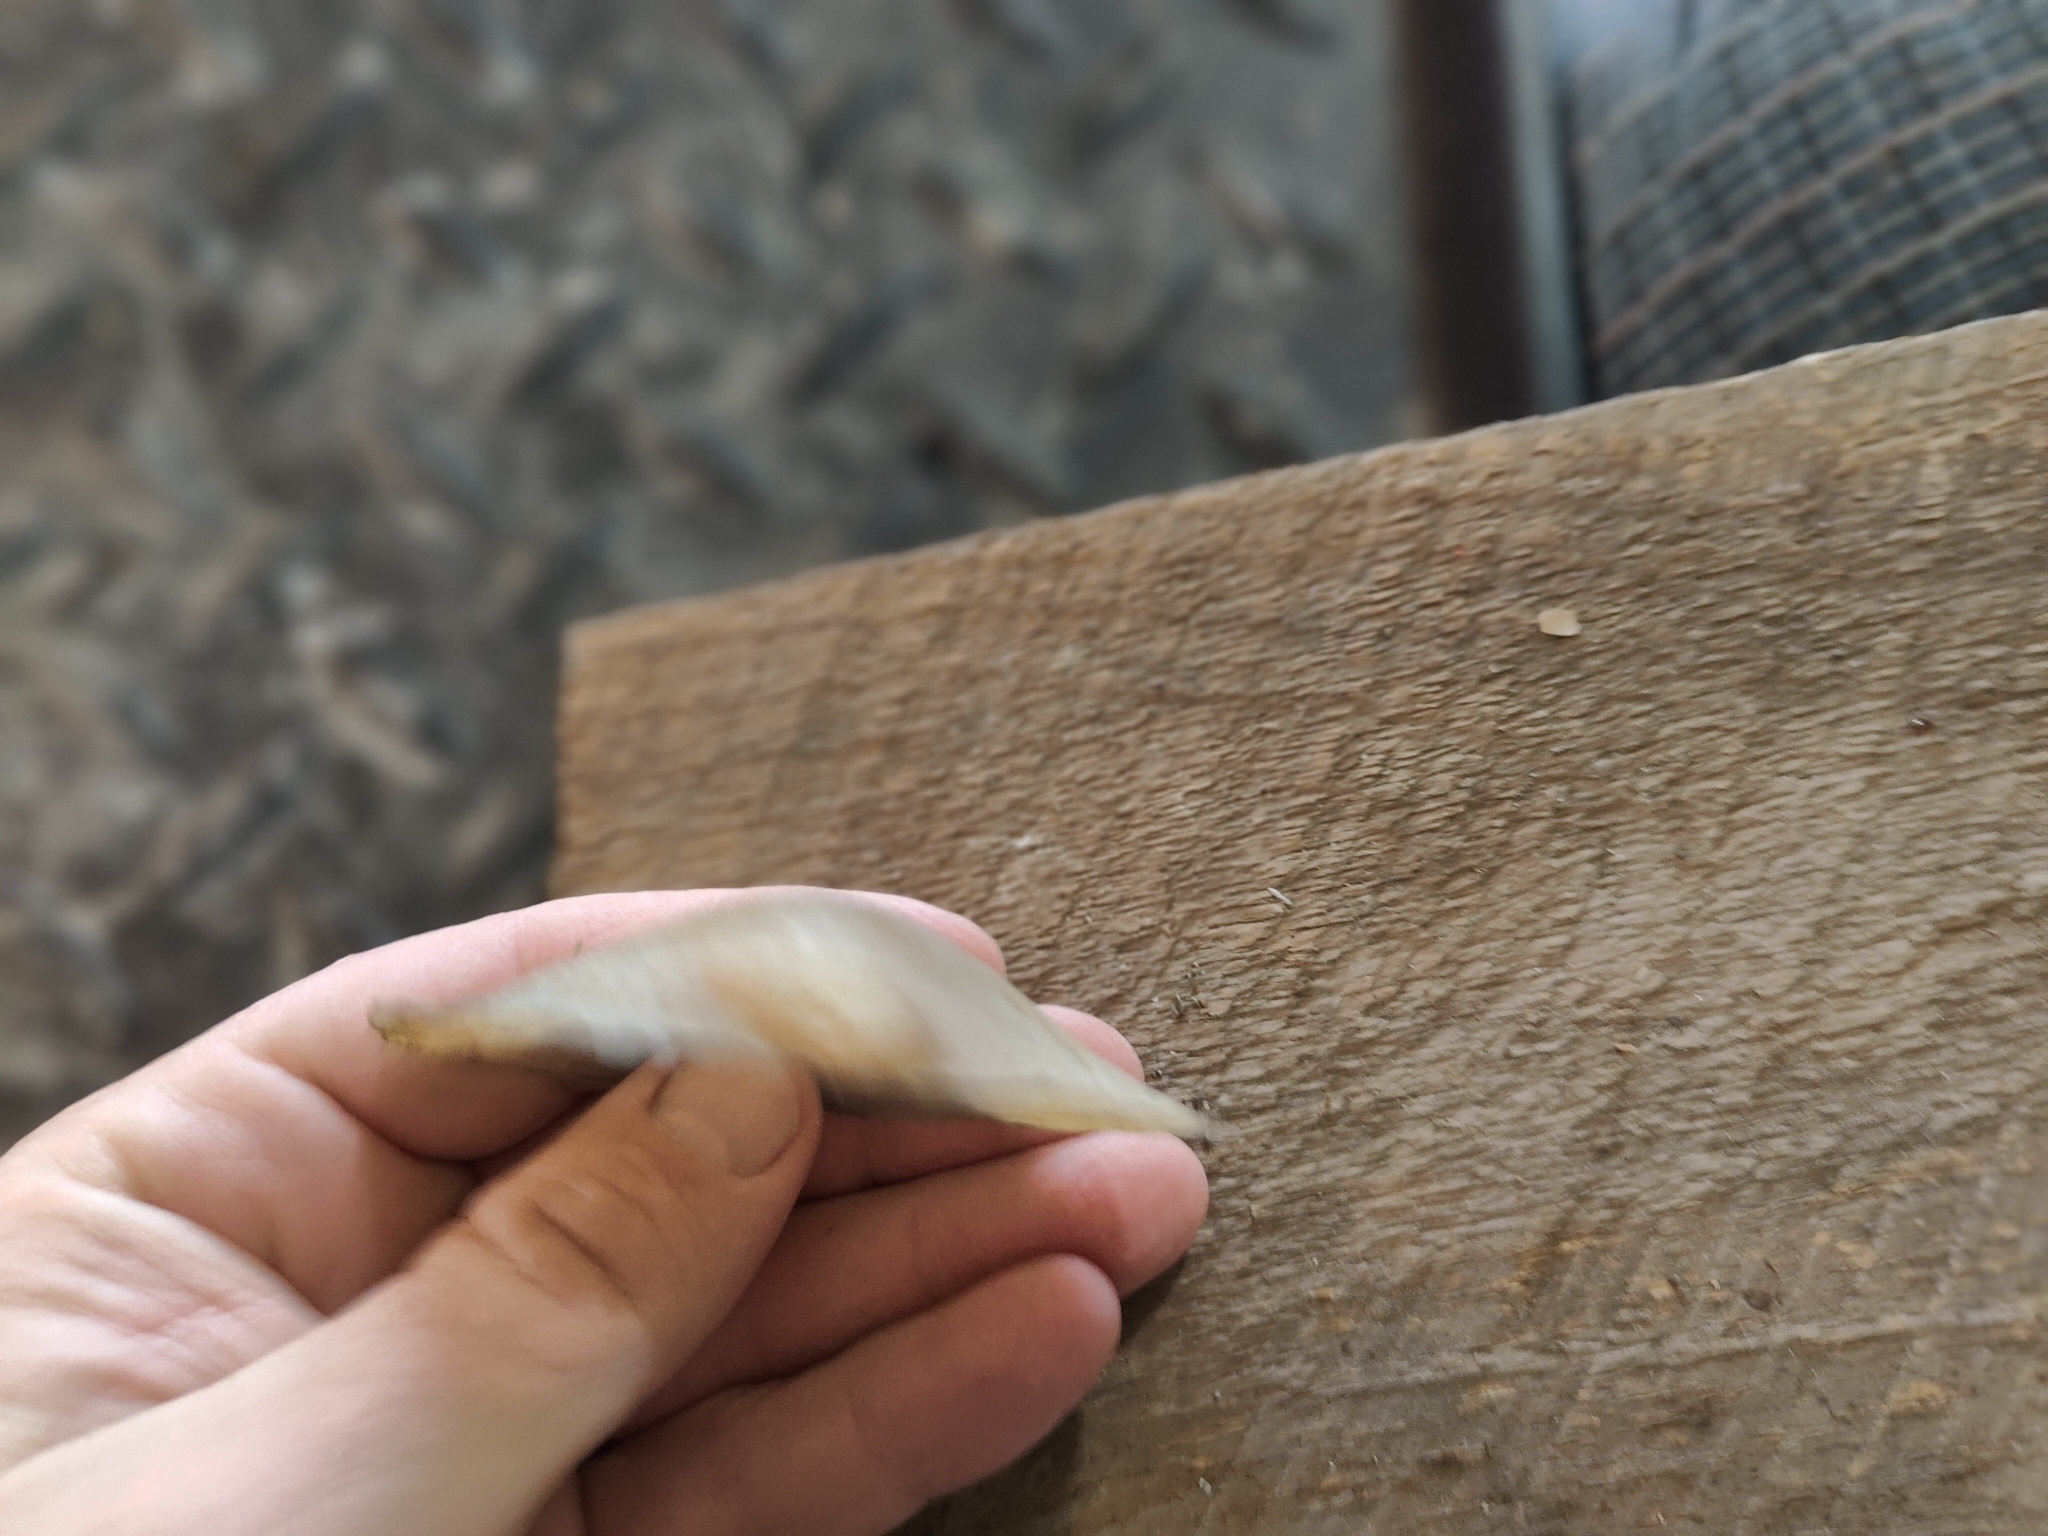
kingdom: Animalia
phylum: Mollusca
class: Bivalvia
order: Unionida
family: Unionidae
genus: Pyganodon
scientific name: Pyganodon grandis
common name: Giant floater
